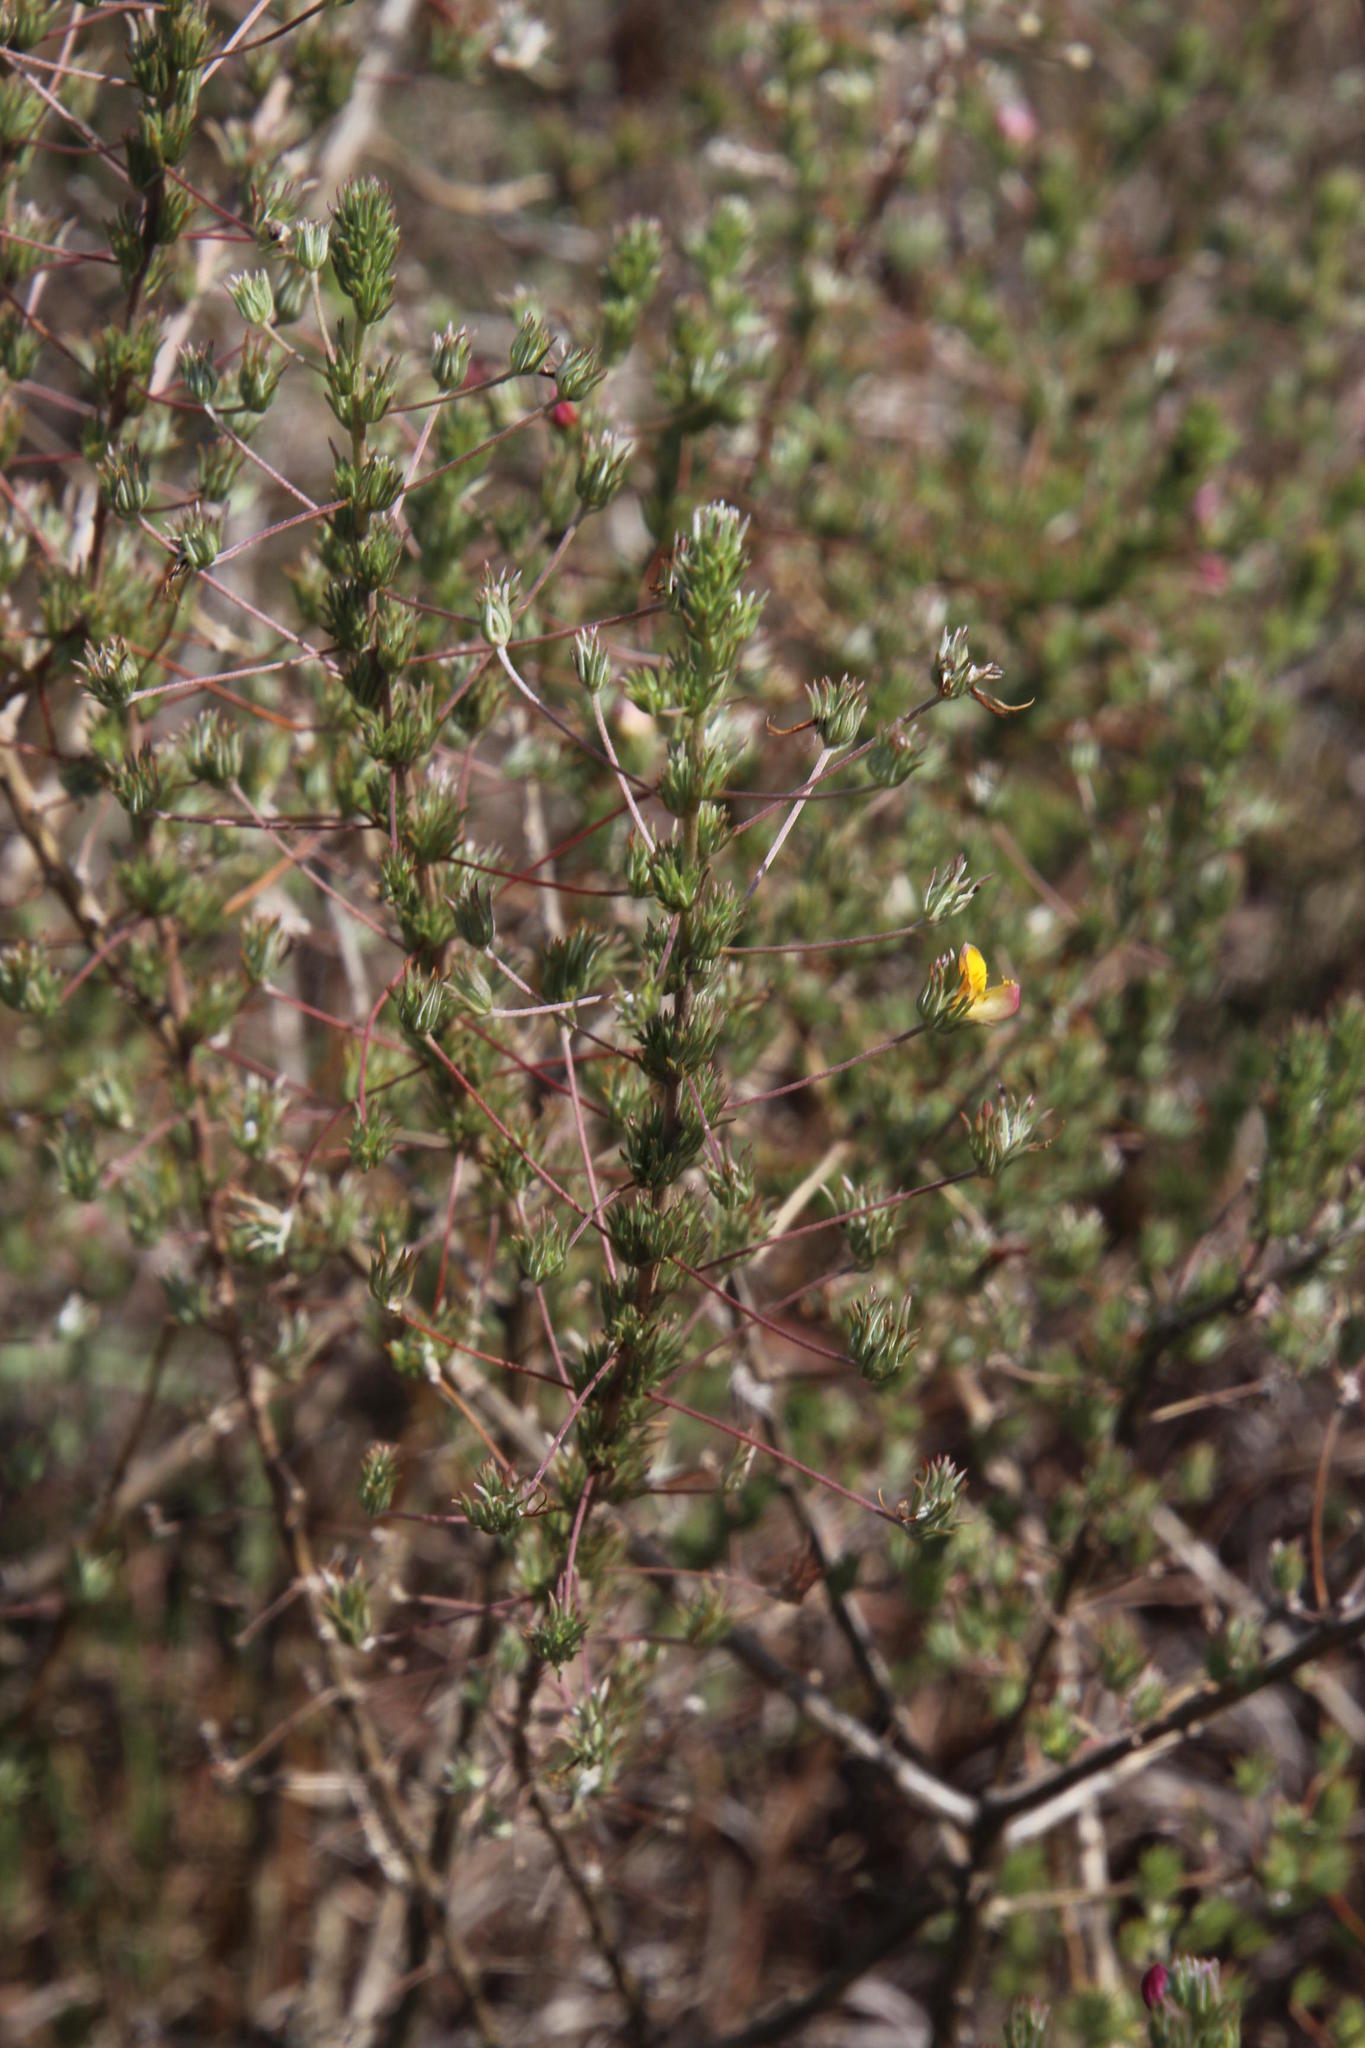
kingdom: Plantae
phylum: Tracheophyta
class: Magnoliopsida
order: Fabales
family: Fabaceae
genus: Aspalathus
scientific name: Aspalathus longipes
